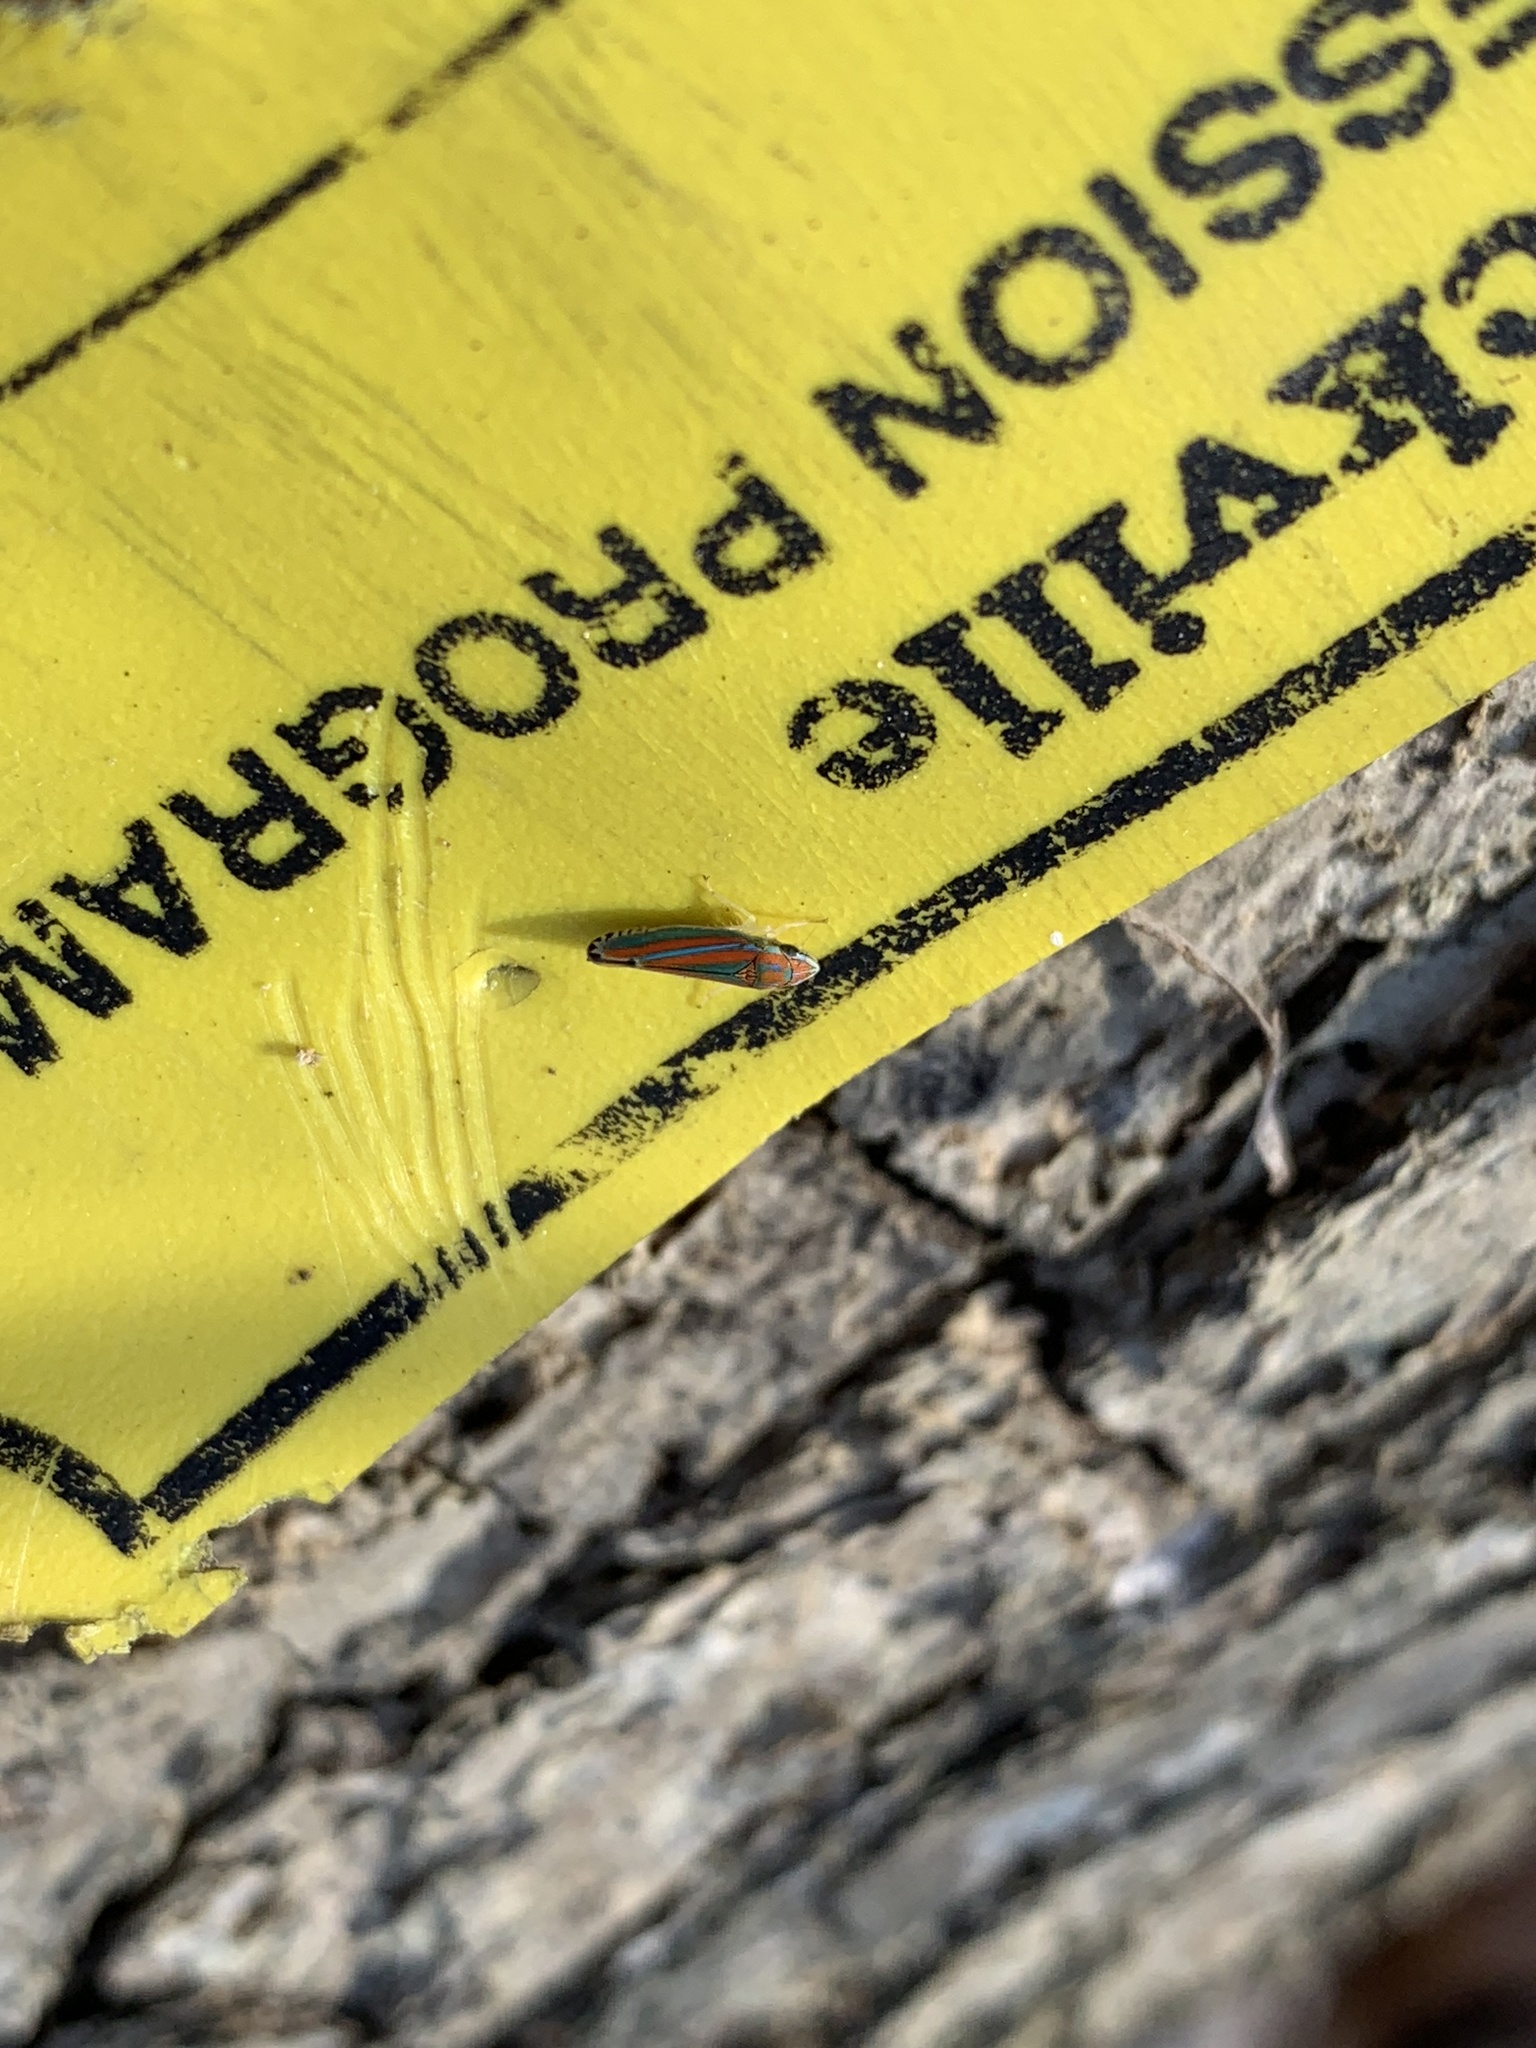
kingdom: Animalia
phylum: Arthropoda
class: Insecta
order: Hemiptera
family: Cicadellidae
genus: Graphocephala
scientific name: Graphocephala coccinea
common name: Candy-striped leafhopper
